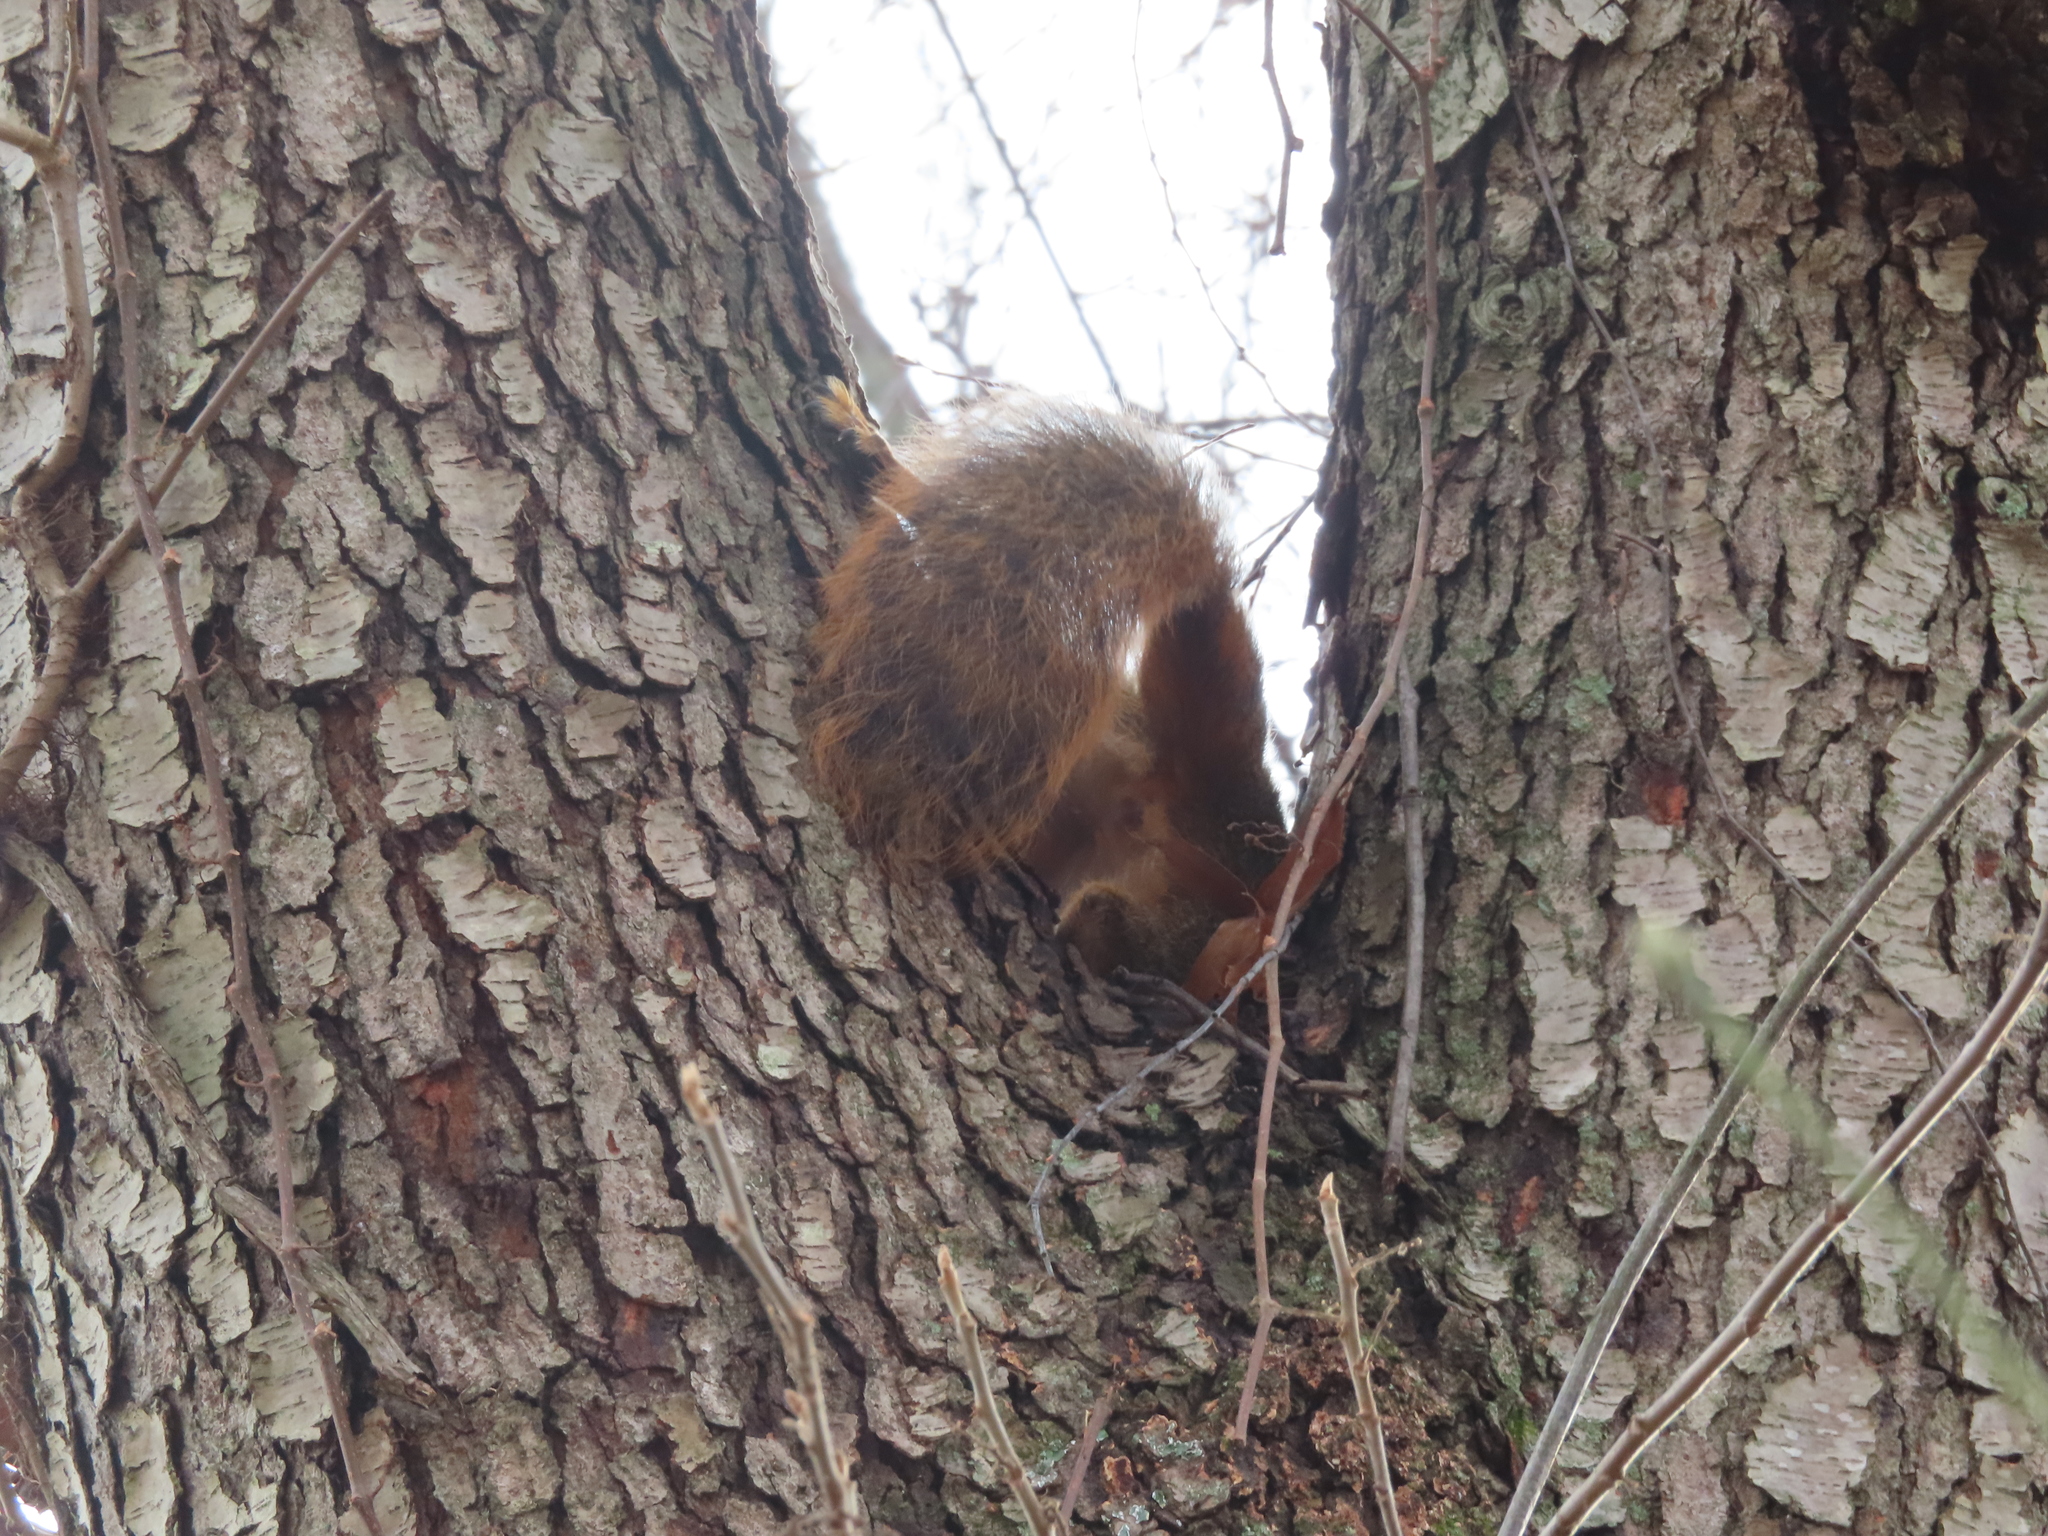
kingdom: Animalia
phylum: Chordata
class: Mammalia
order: Rodentia
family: Sciuridae
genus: Sciurus
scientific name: Sciurus niger
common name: Fox squirrel
